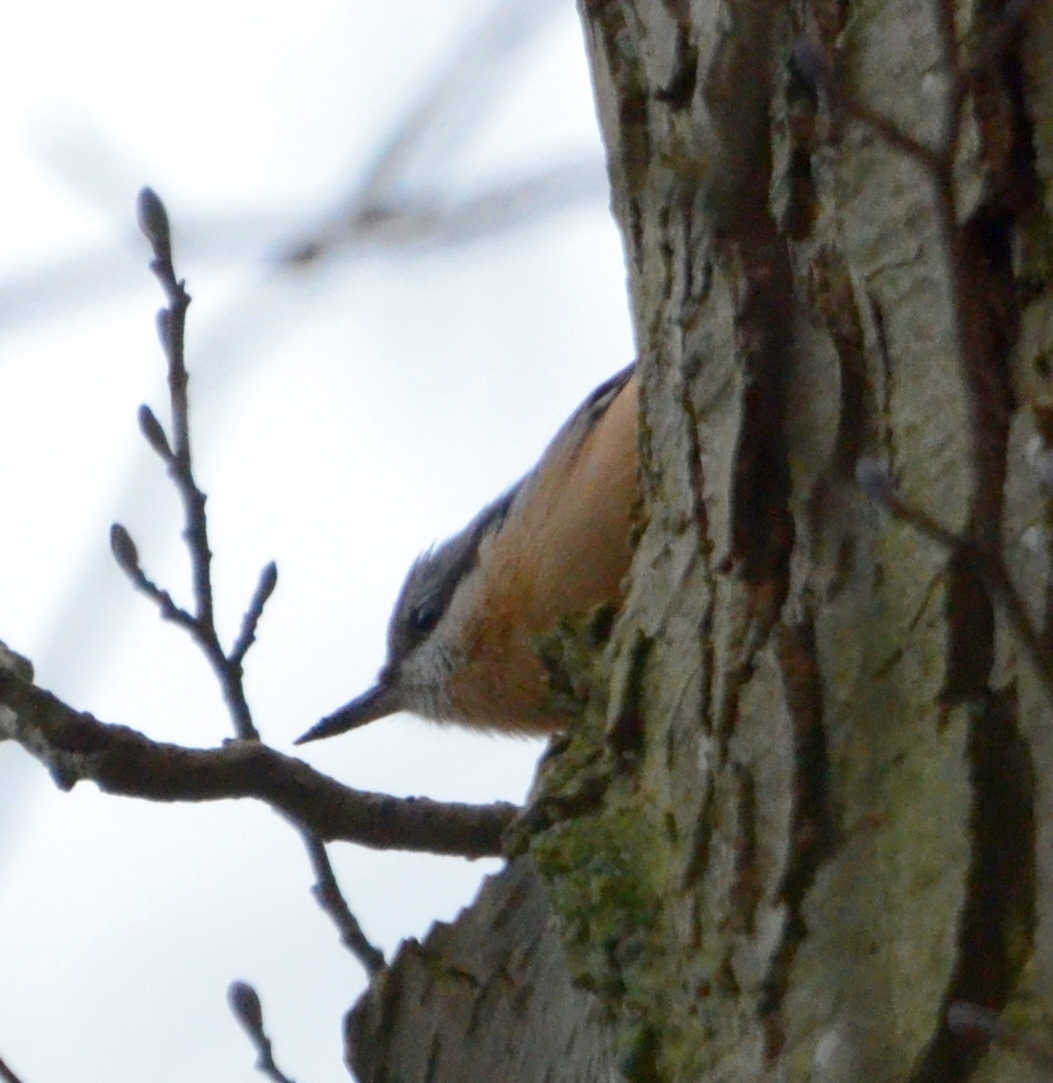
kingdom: Animalia
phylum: Chordata
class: Aves
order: Passeriformes
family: Sittidae
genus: Sitta
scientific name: Sitta europaea
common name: Eurasian nuthatch
